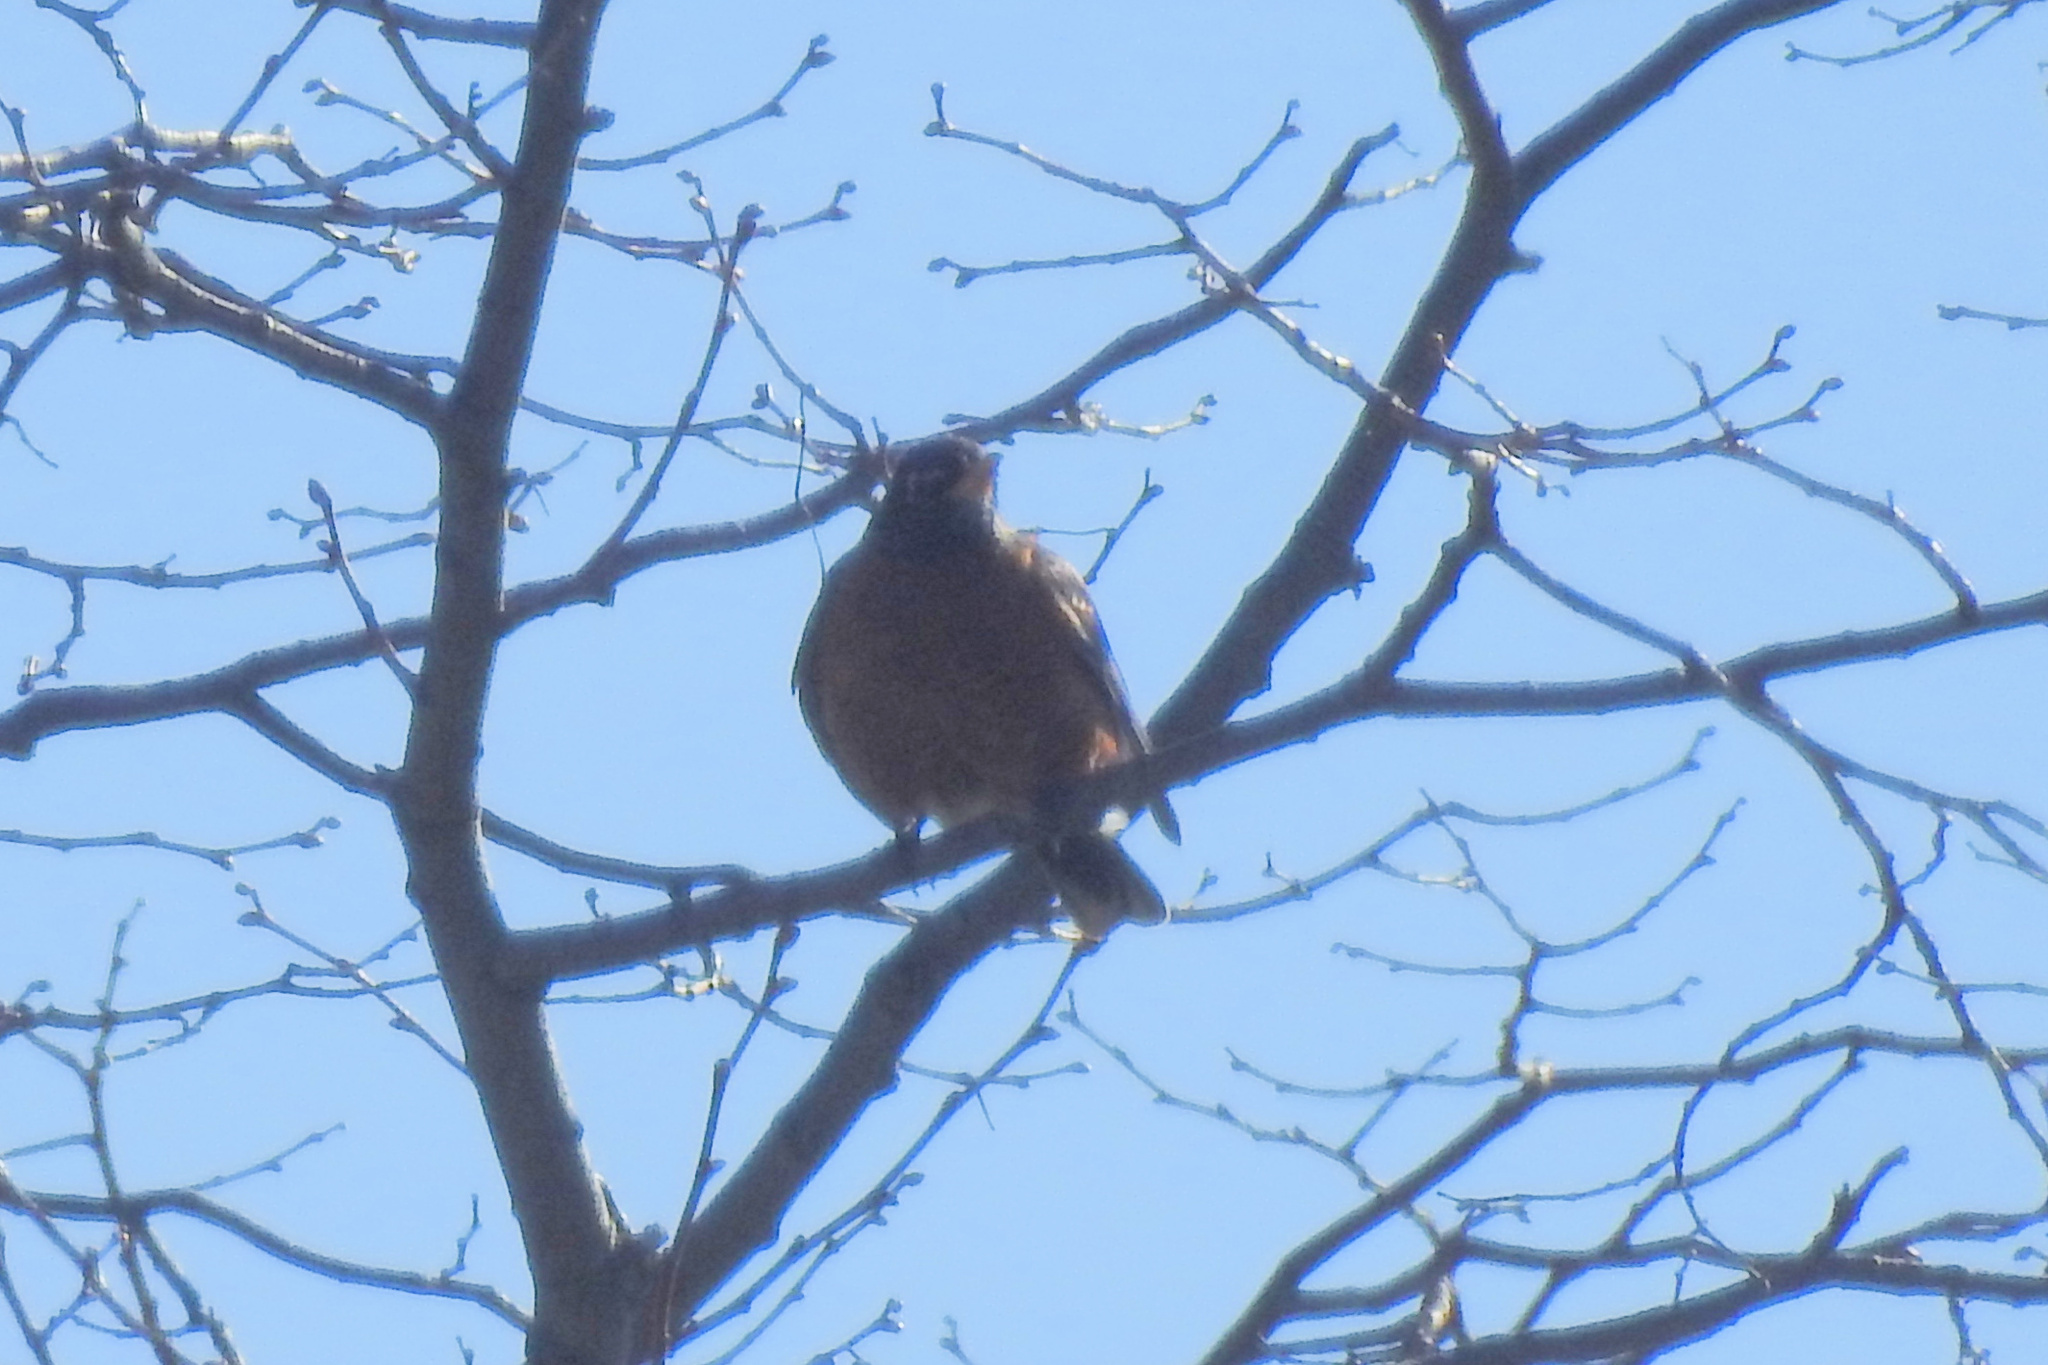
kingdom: Animalia
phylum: Chordata
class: Aves
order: Passeriformes
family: Turdidae
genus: Turdus
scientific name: Turdus migratorius
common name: American robin
